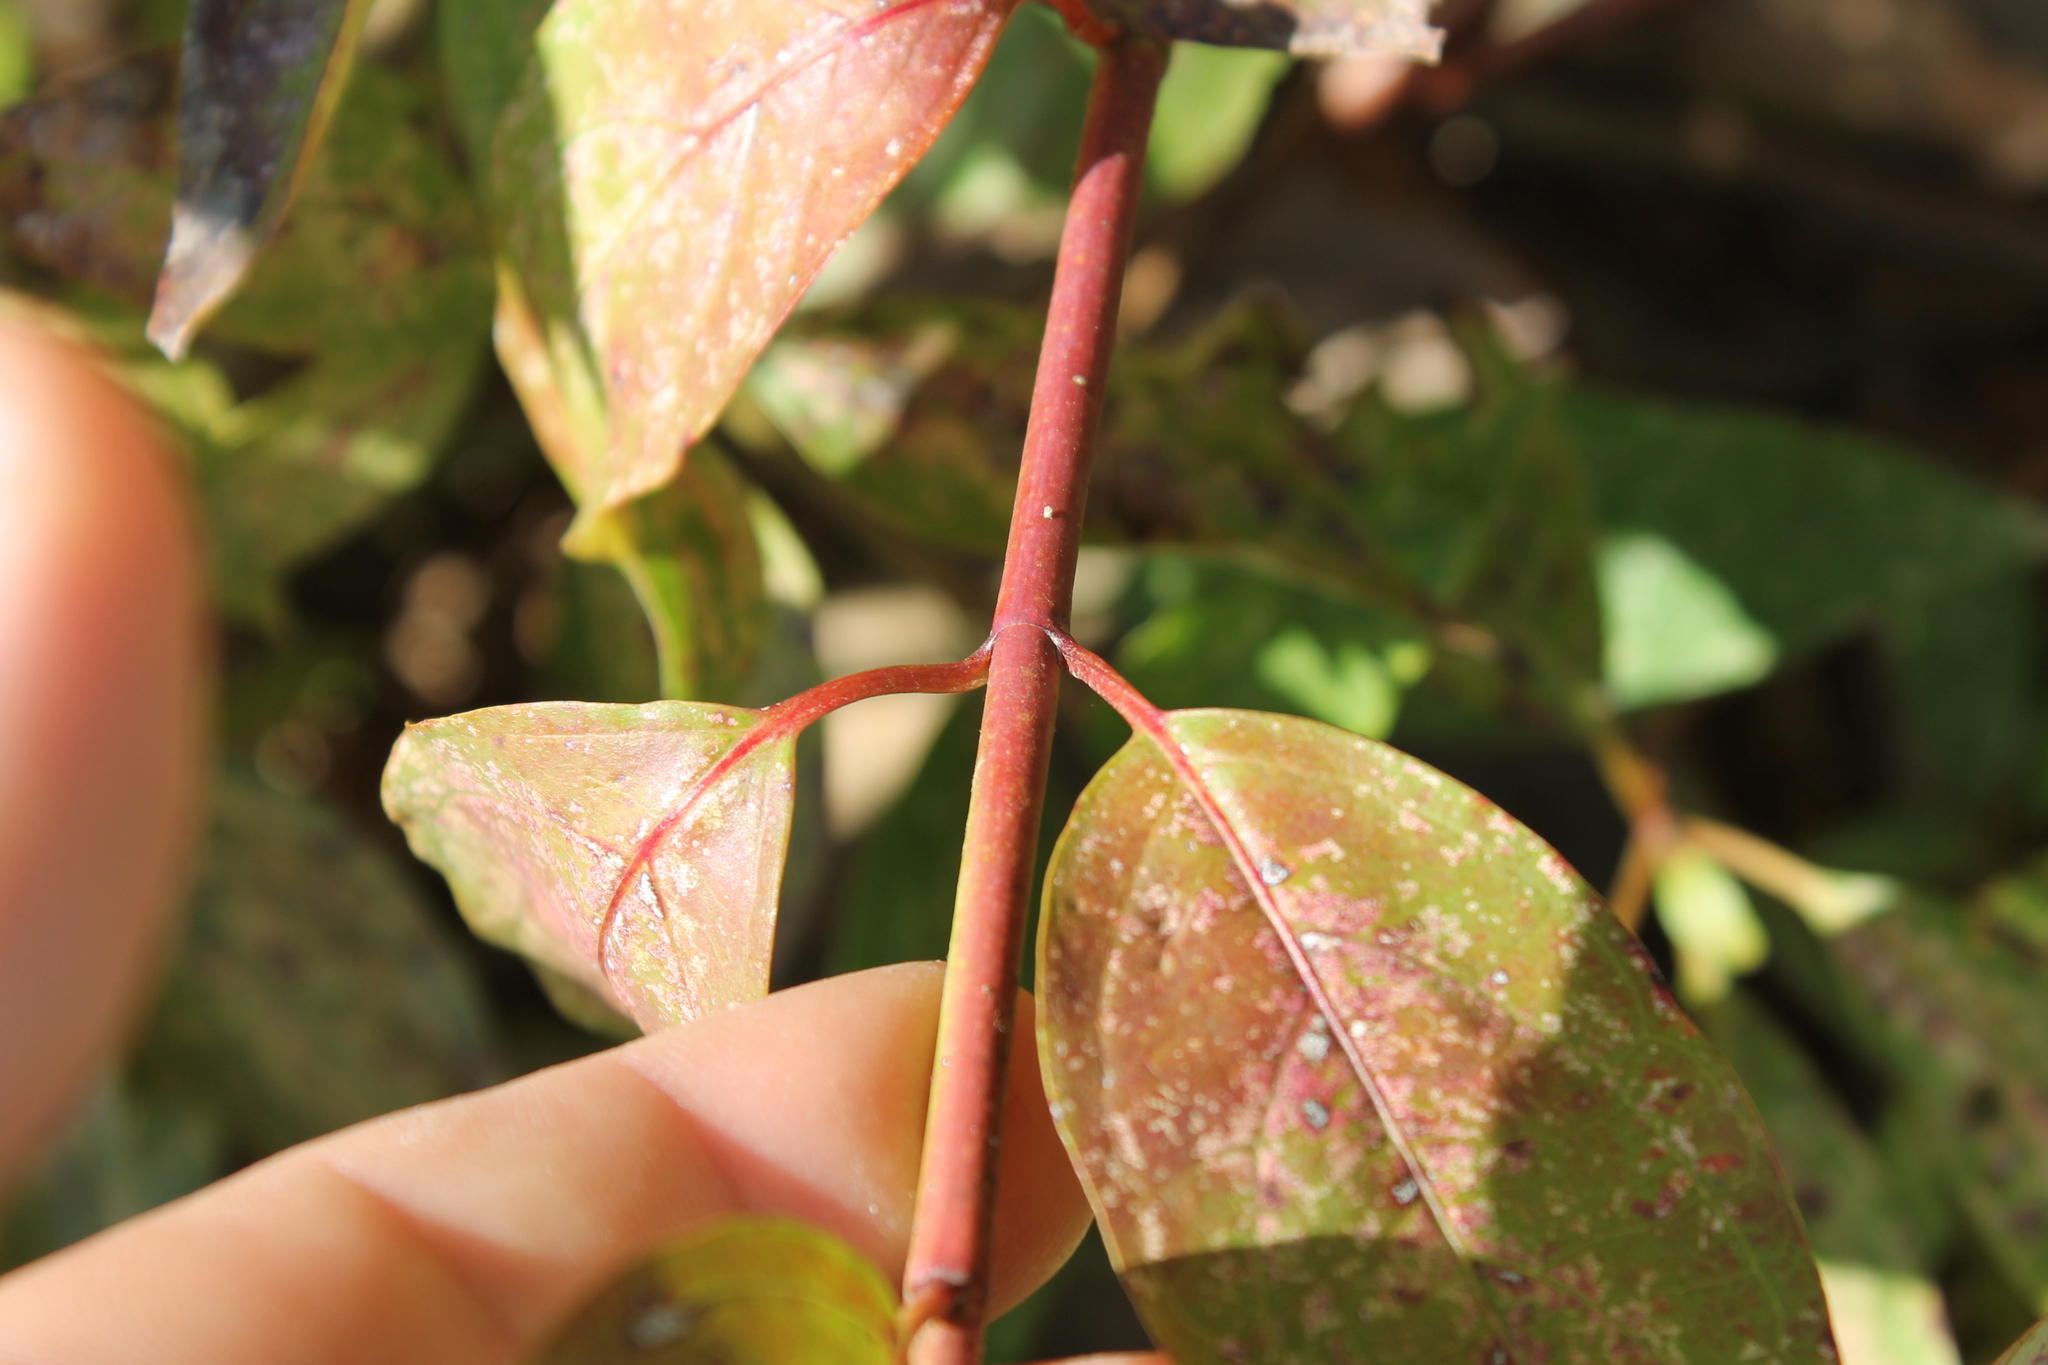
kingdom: Plantae
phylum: Tracheophyta
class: Magnoliopsida
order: Cornales
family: Cornaceae
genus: Cornus
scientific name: Cornus obliqua
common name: Pale dogwood
